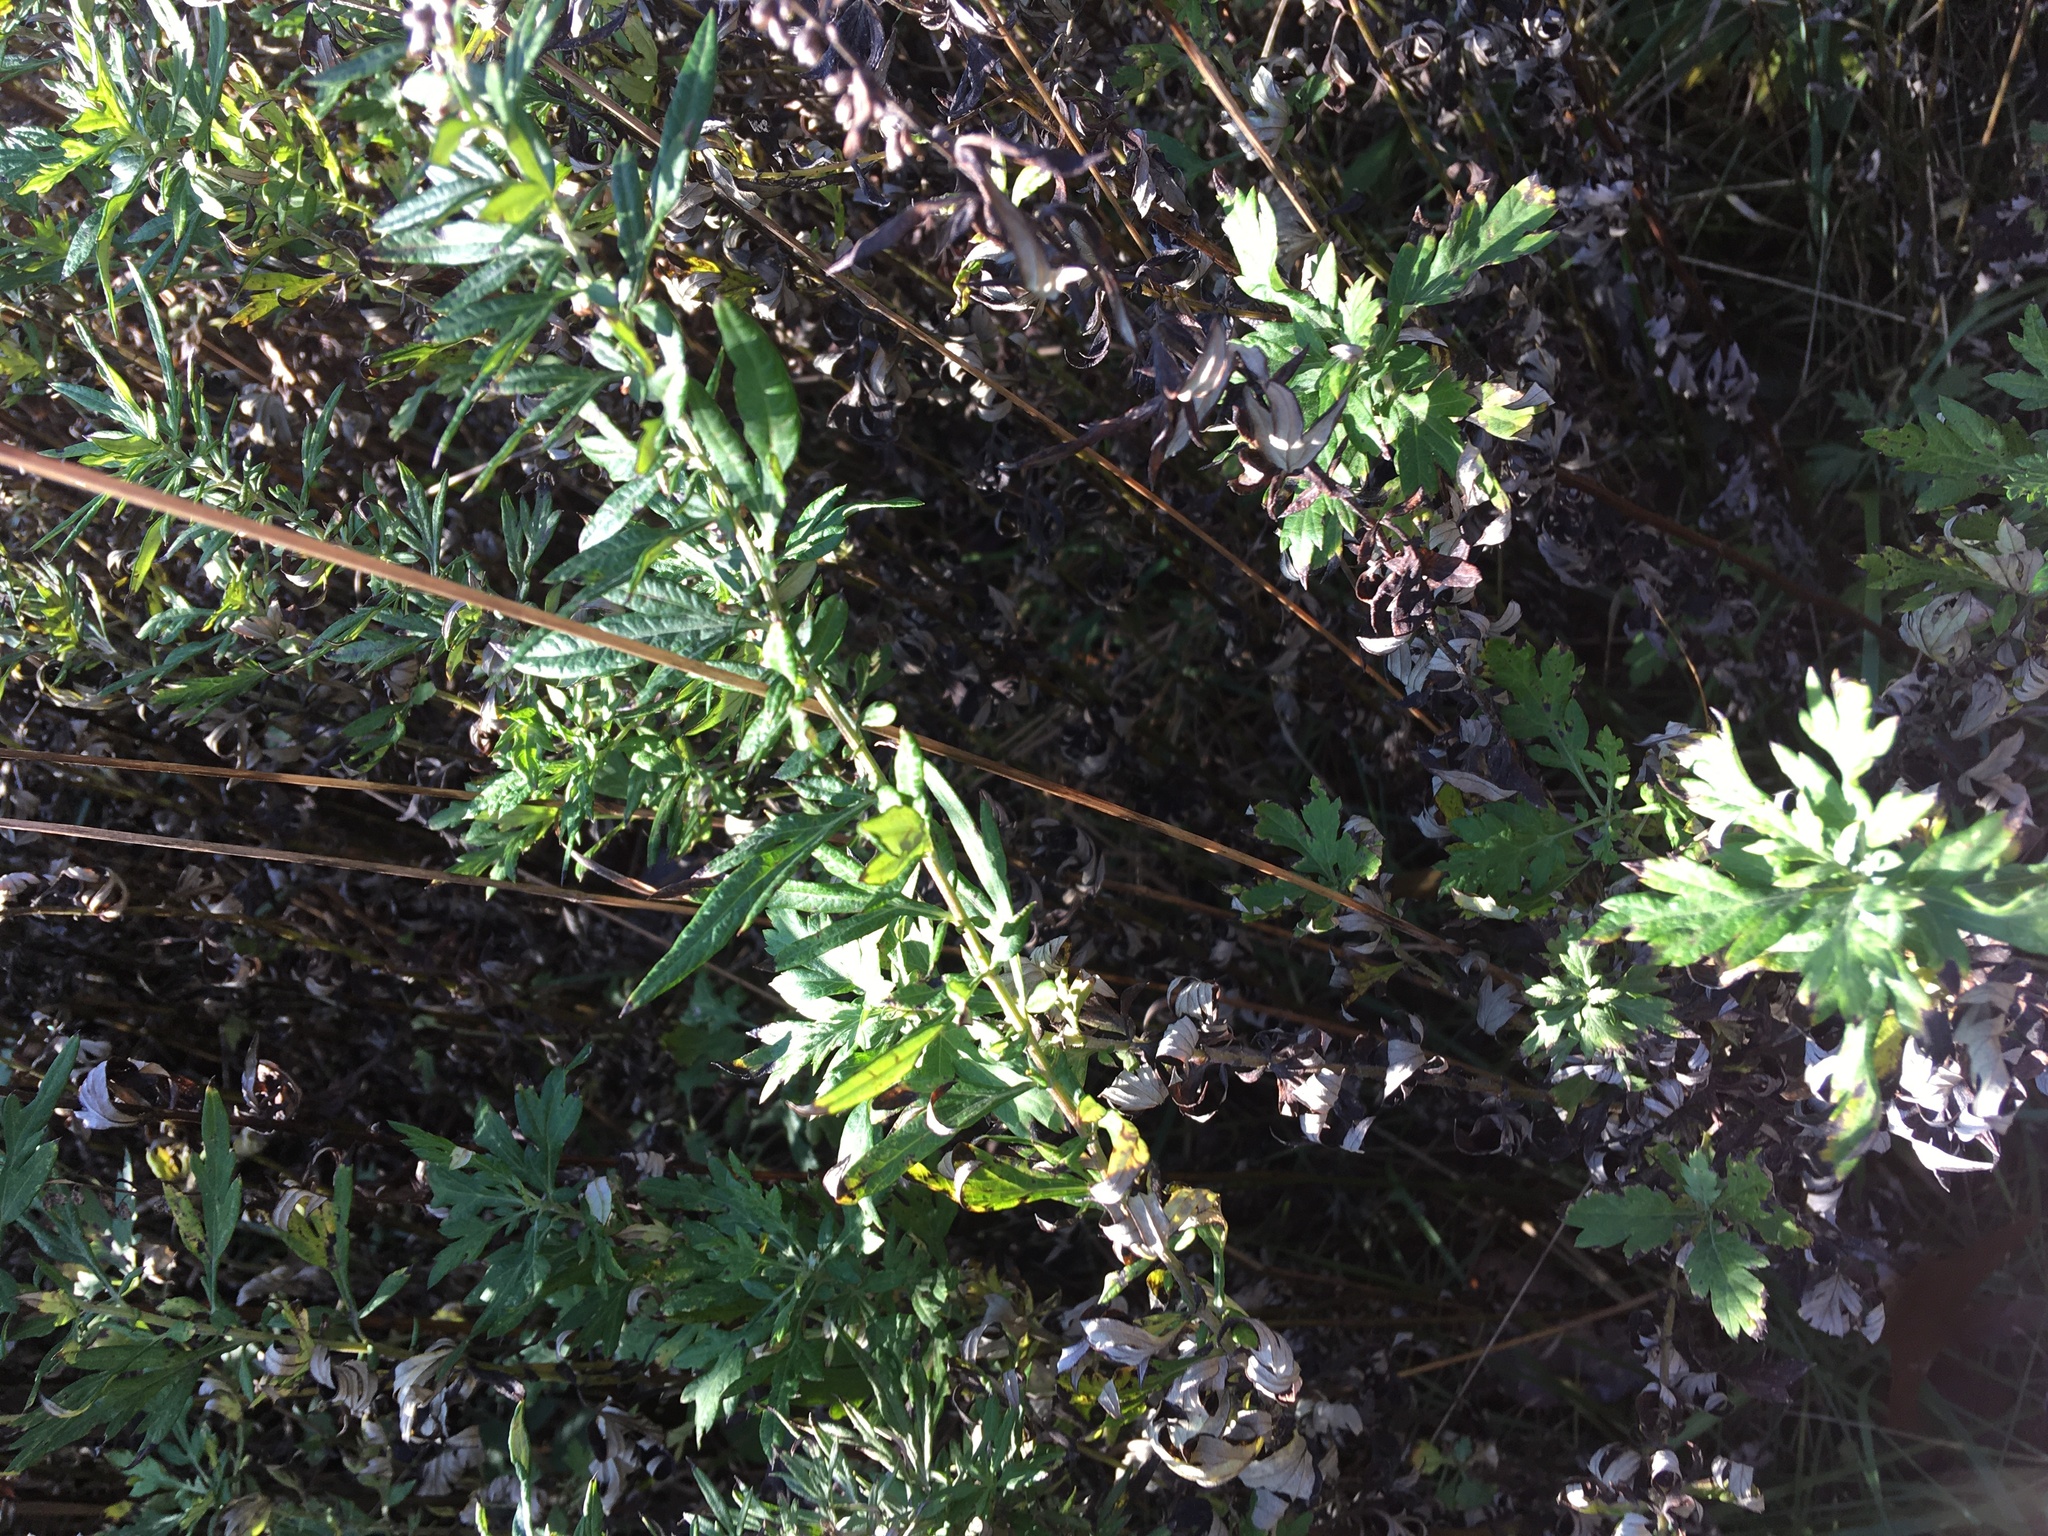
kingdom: Plantae
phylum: Tracheophyta
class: Magnoliopsida
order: Asterales
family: Asteraceae
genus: Artemisia
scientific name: Artemisia vulgaris
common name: Mugwort
